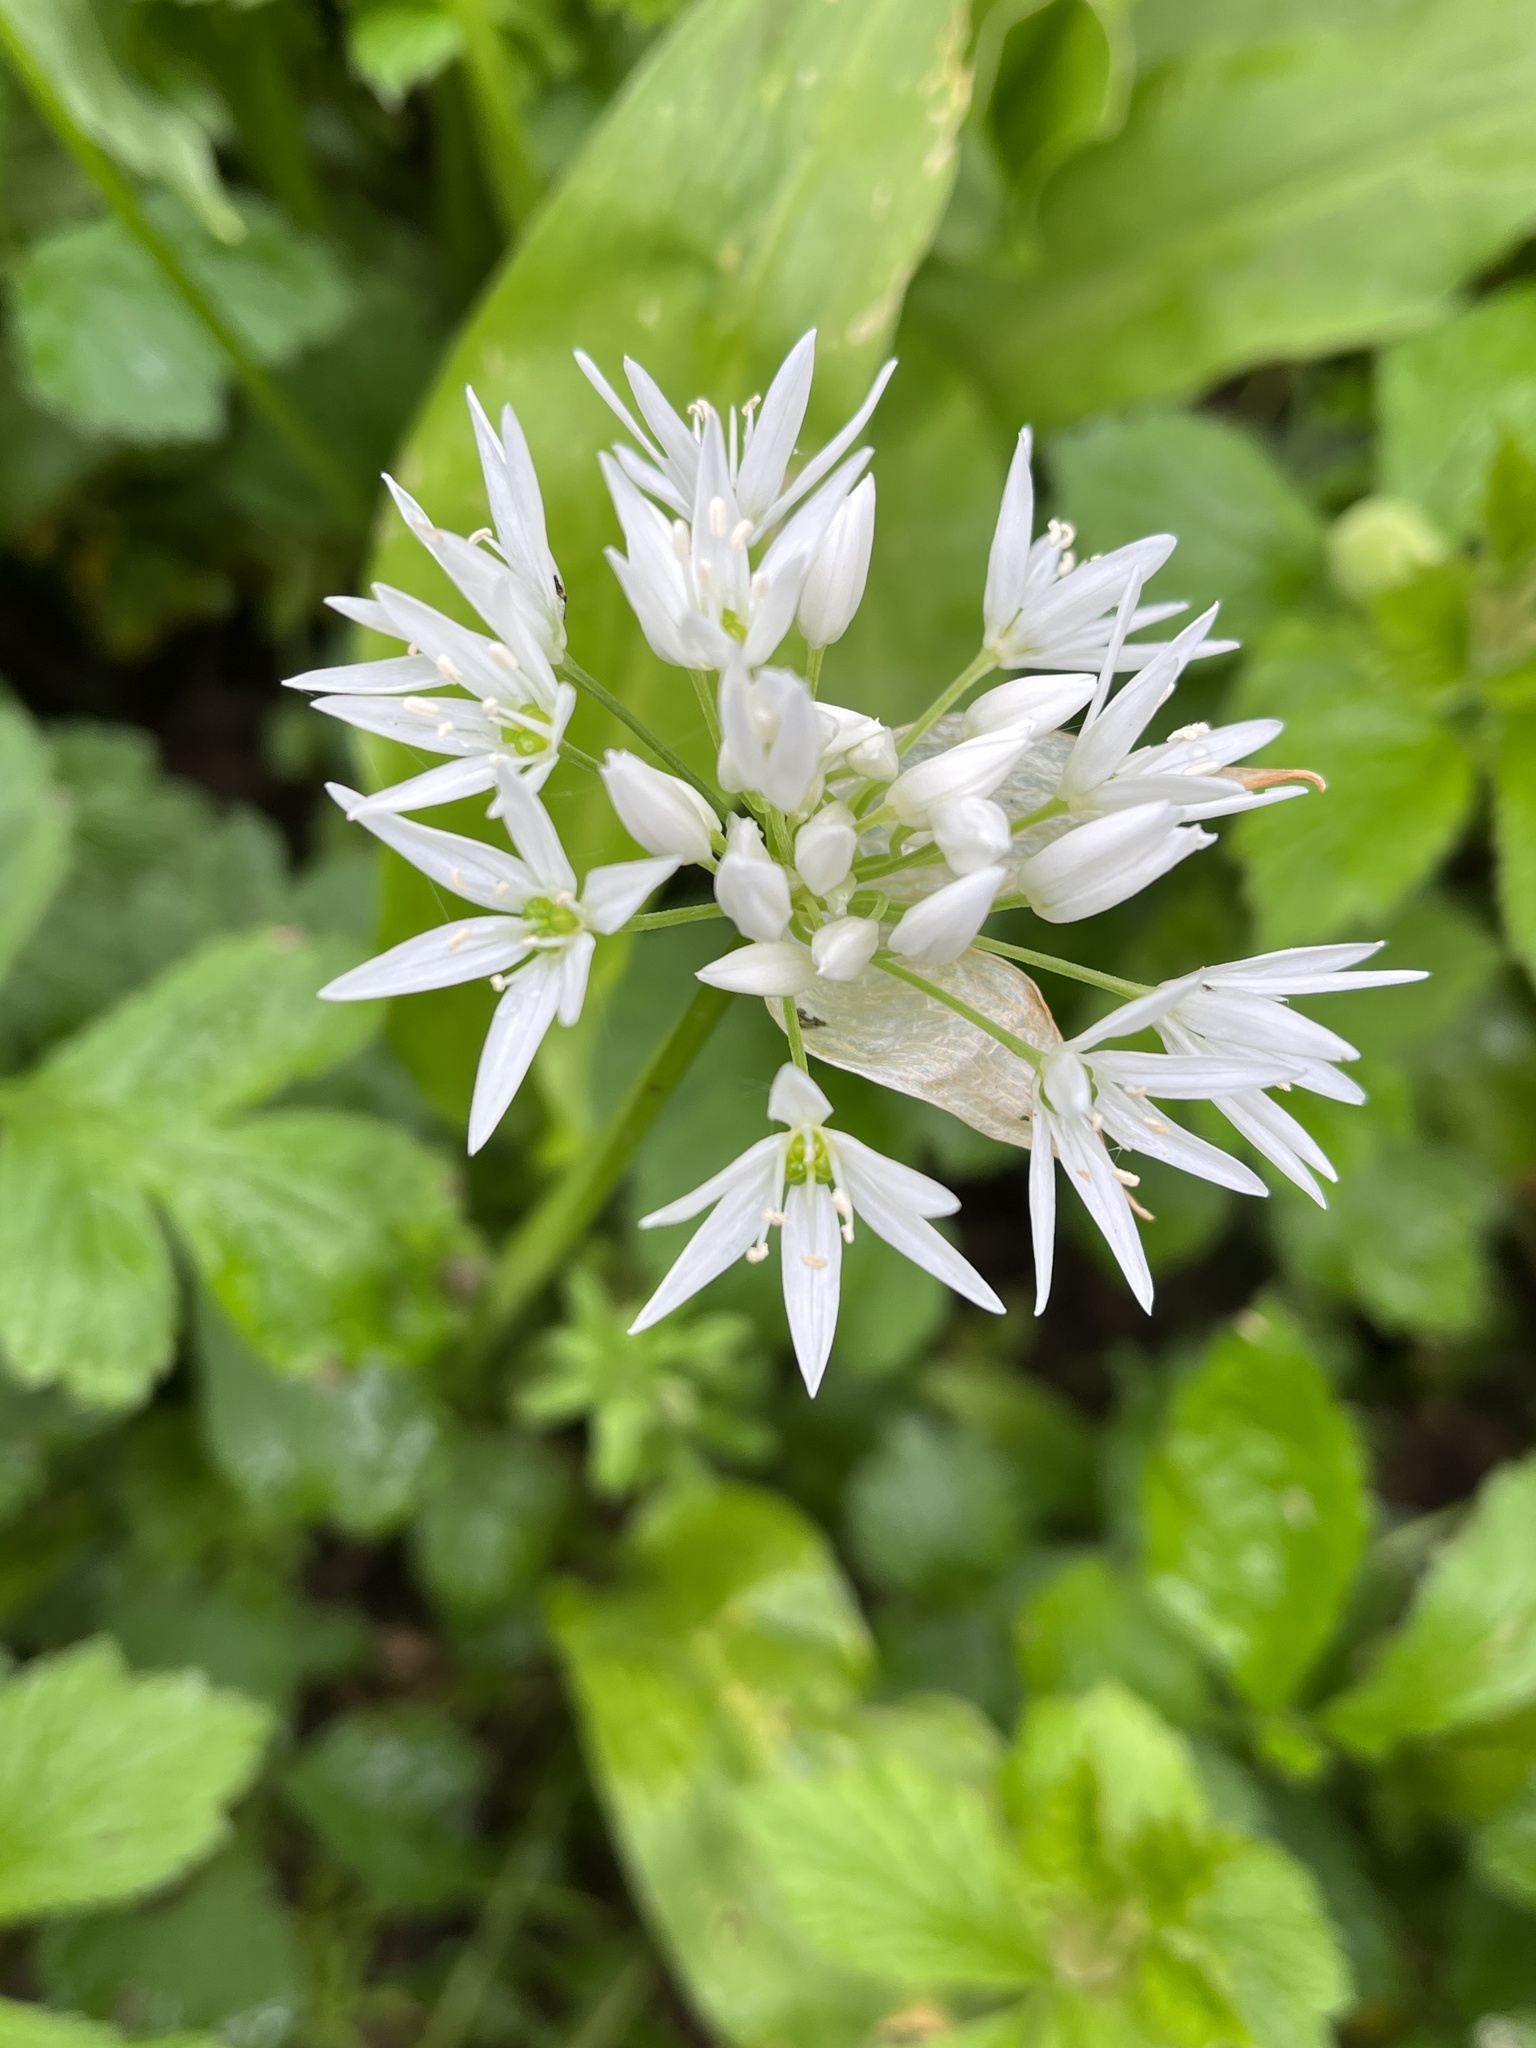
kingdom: Plantae
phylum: Tracheophyta
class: Liliopsida
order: Asparagales
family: Amaryllidaceae
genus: Allium
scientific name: Allium ursinum
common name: Ramsons
